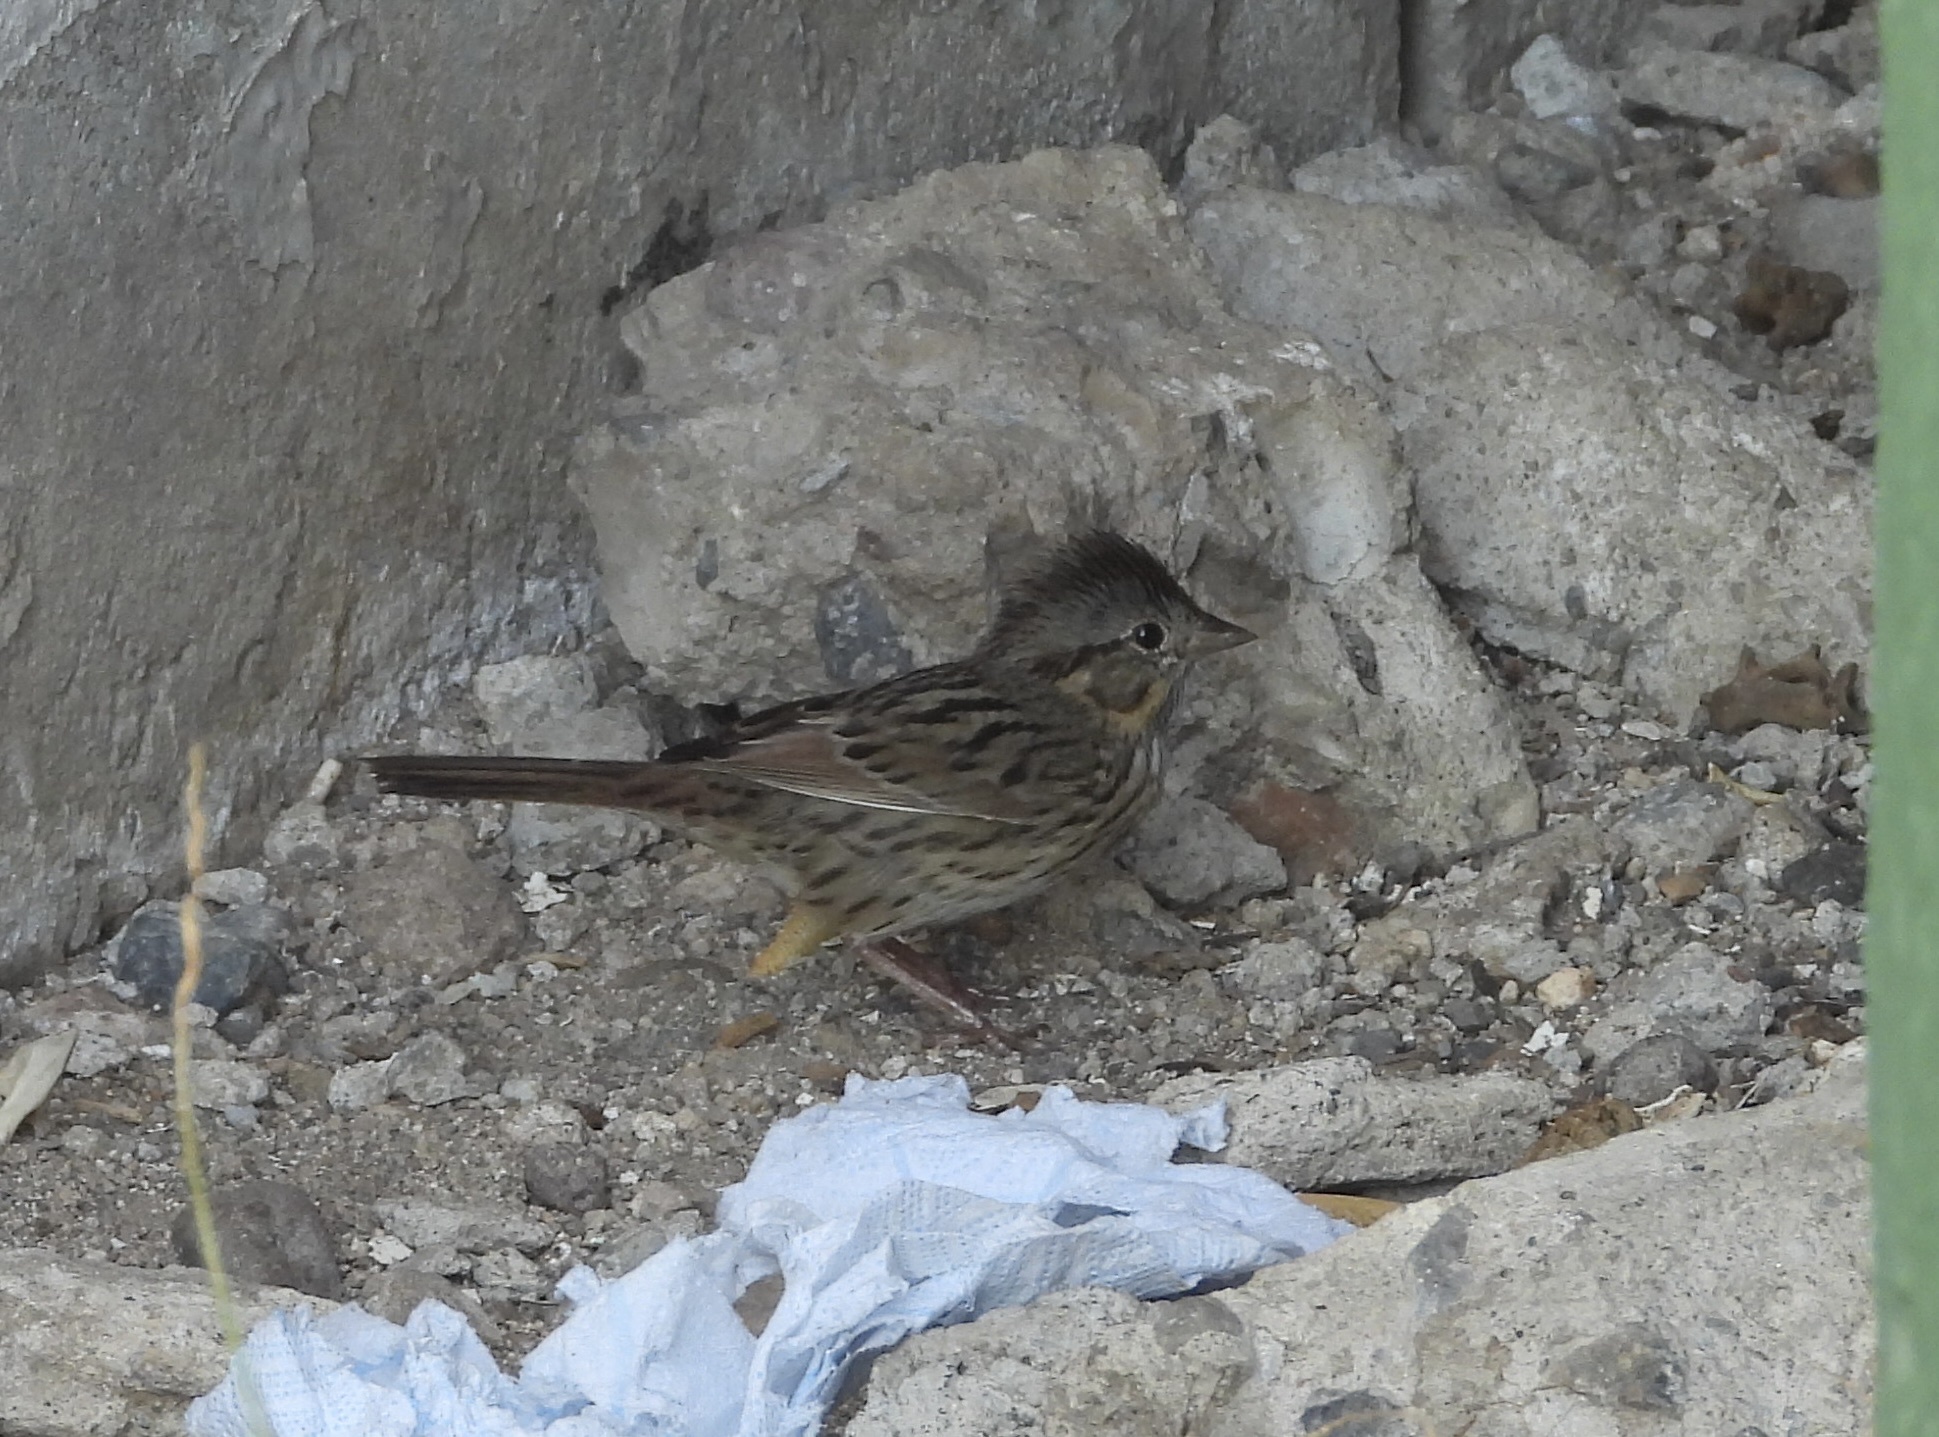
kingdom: Animalia
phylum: Chordata
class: Aves
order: Passeriformes
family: Passerellidae
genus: Melospiza
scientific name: Melospiza lincolnii
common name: Lincoln's sparrow
